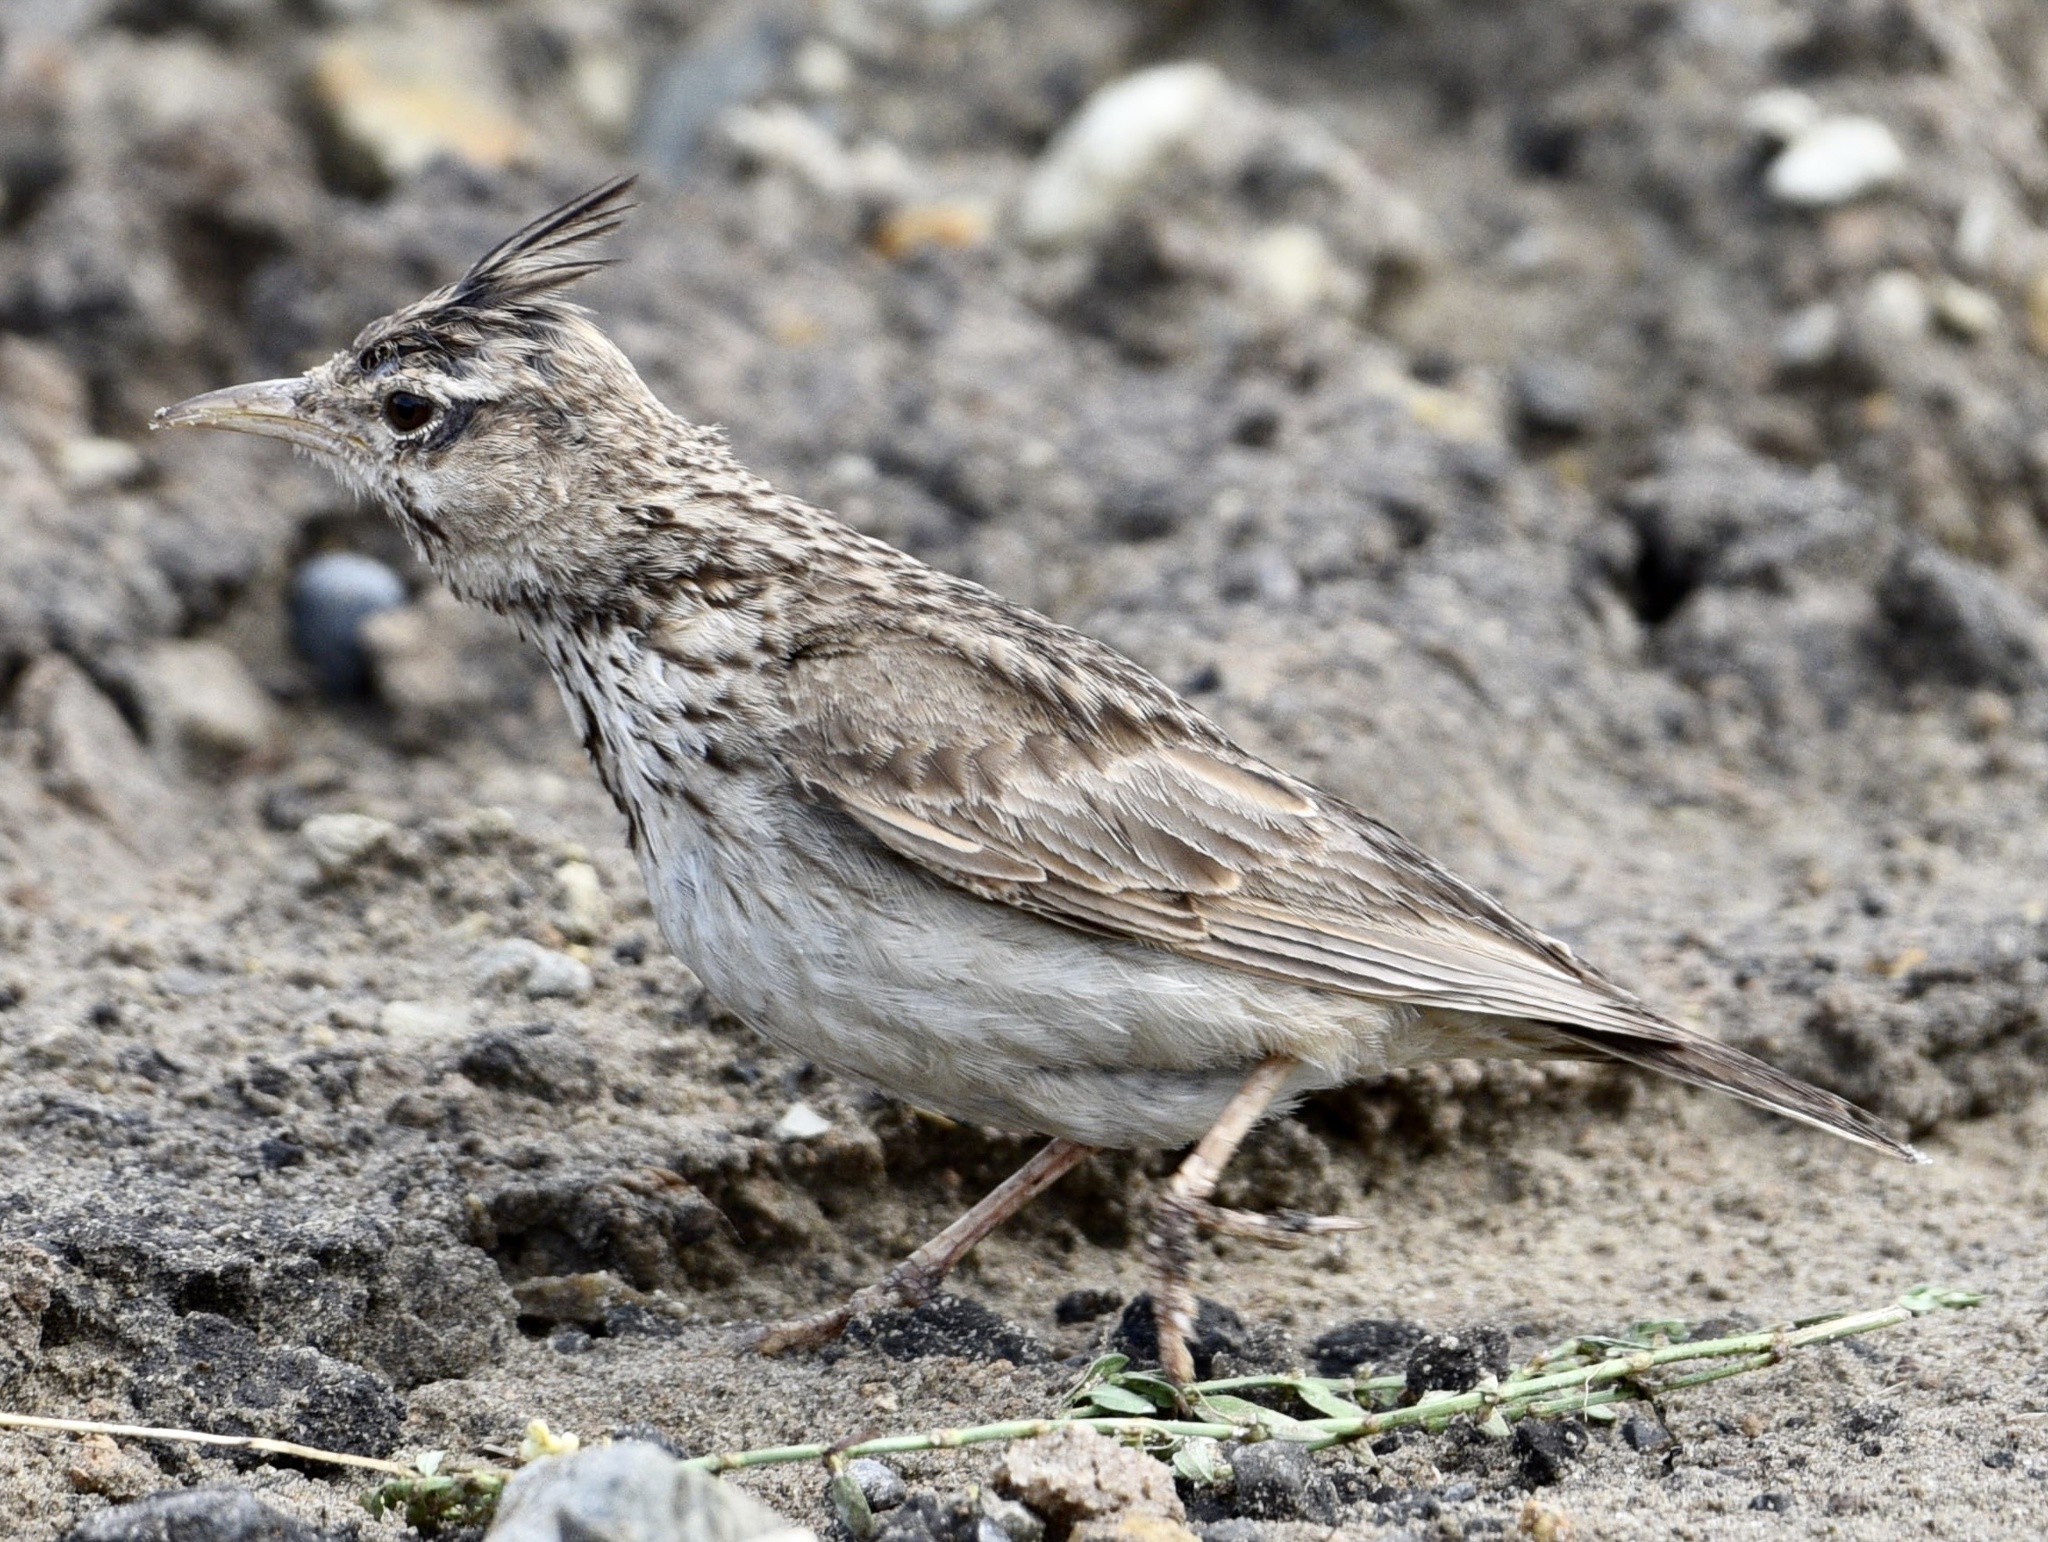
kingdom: Animalia
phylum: Chordata
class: Aves
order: Passeriformes
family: Alaudidae
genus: Galerida
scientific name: Galerida cristata
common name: Crested lark
